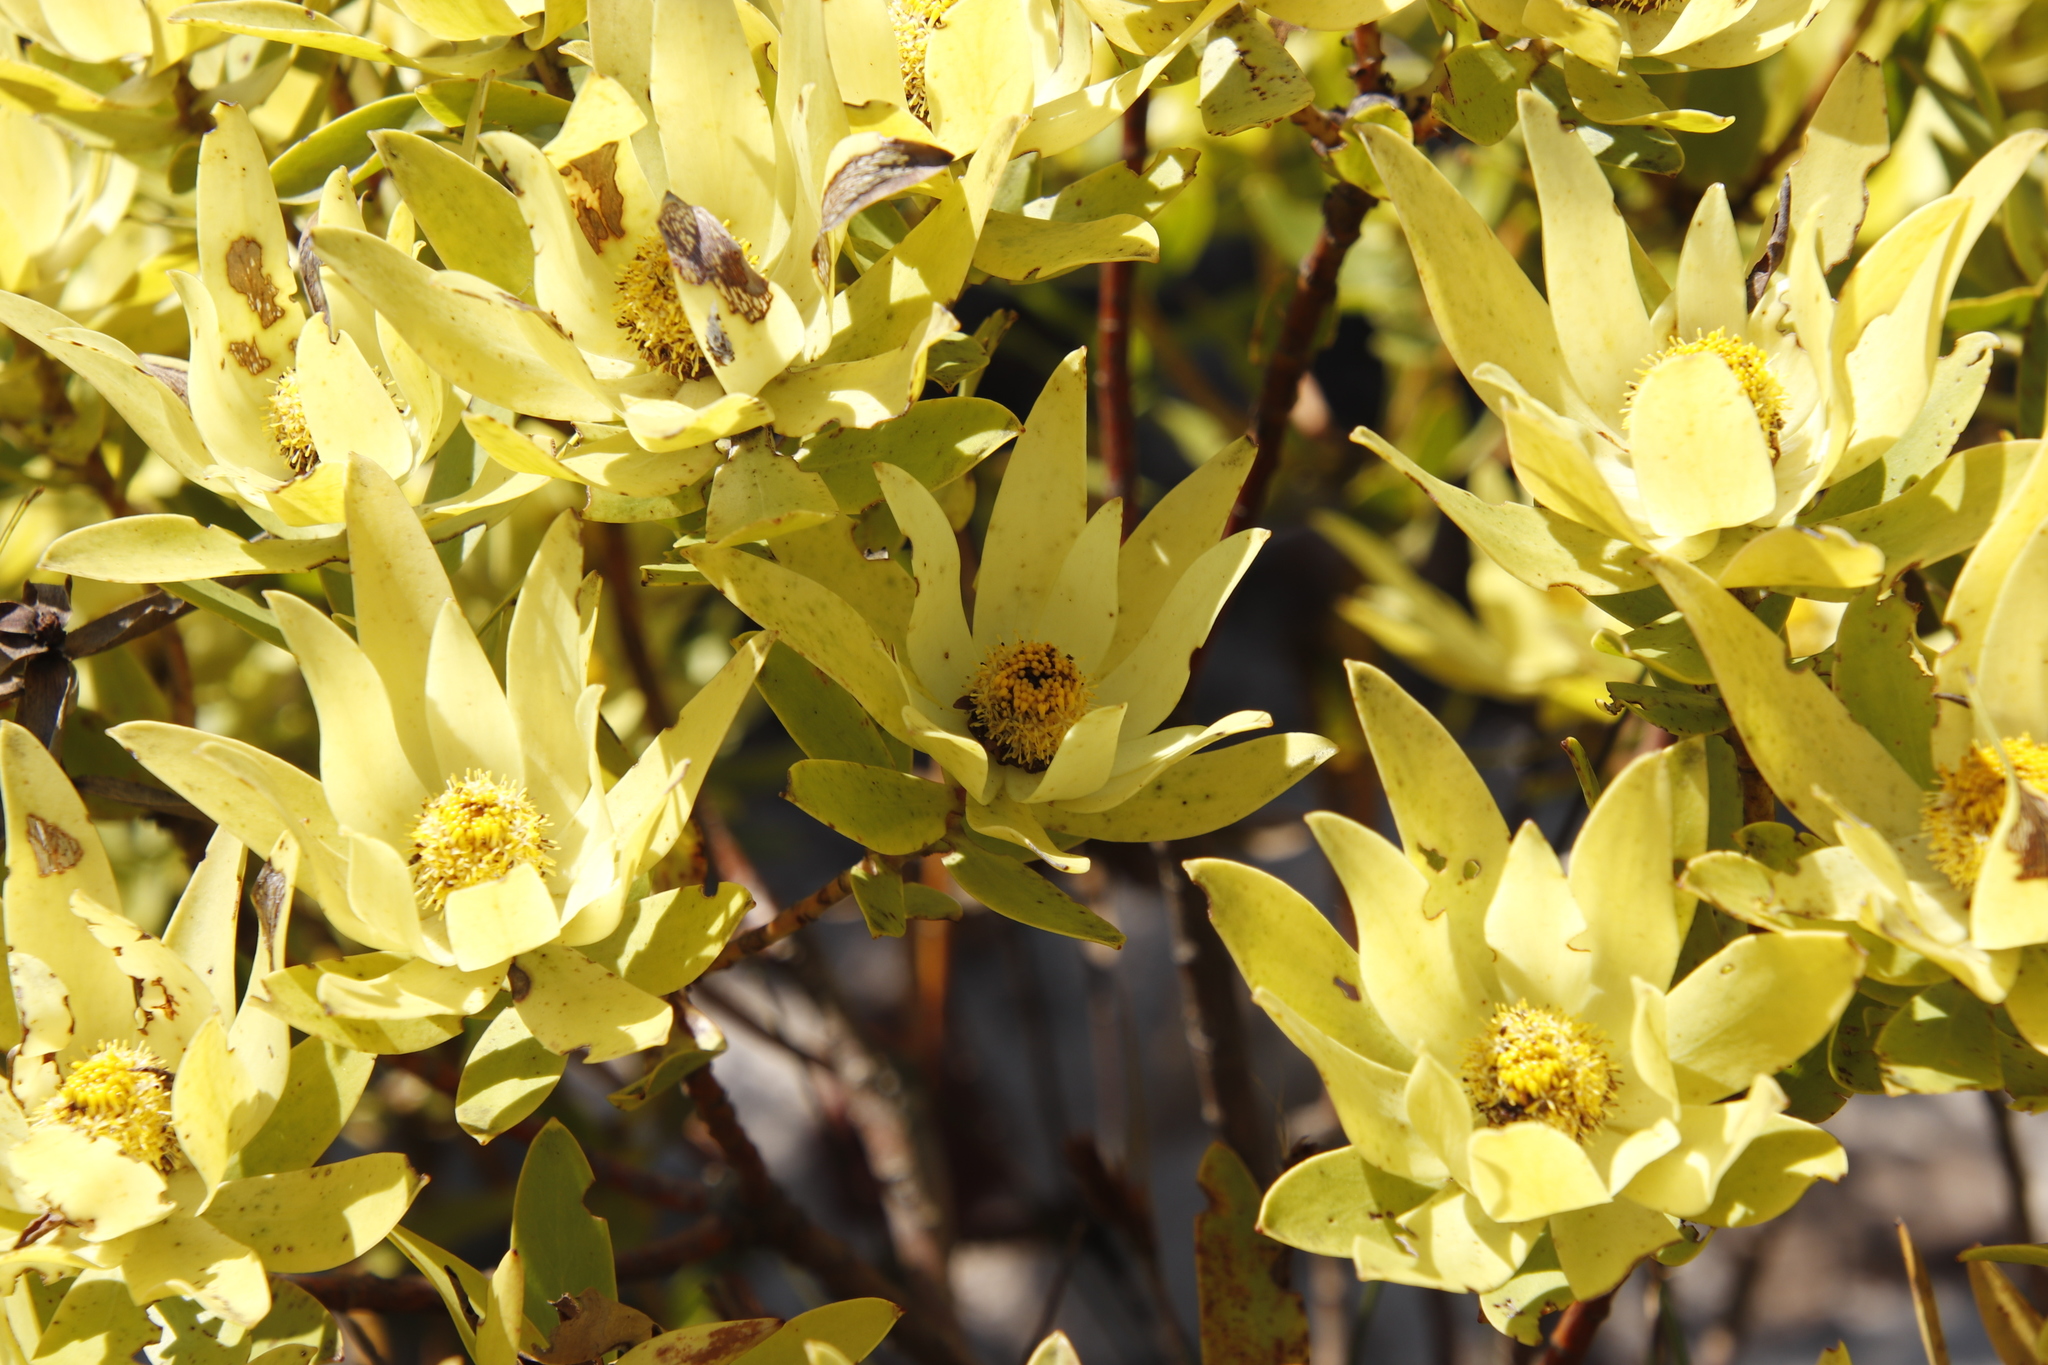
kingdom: Plantae
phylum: Tracheophyta
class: Magnoliopsida
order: Proteales
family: Proteaceae
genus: Leucadendron
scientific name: Leucadendron gandogeri
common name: Broad-leaf conebush
